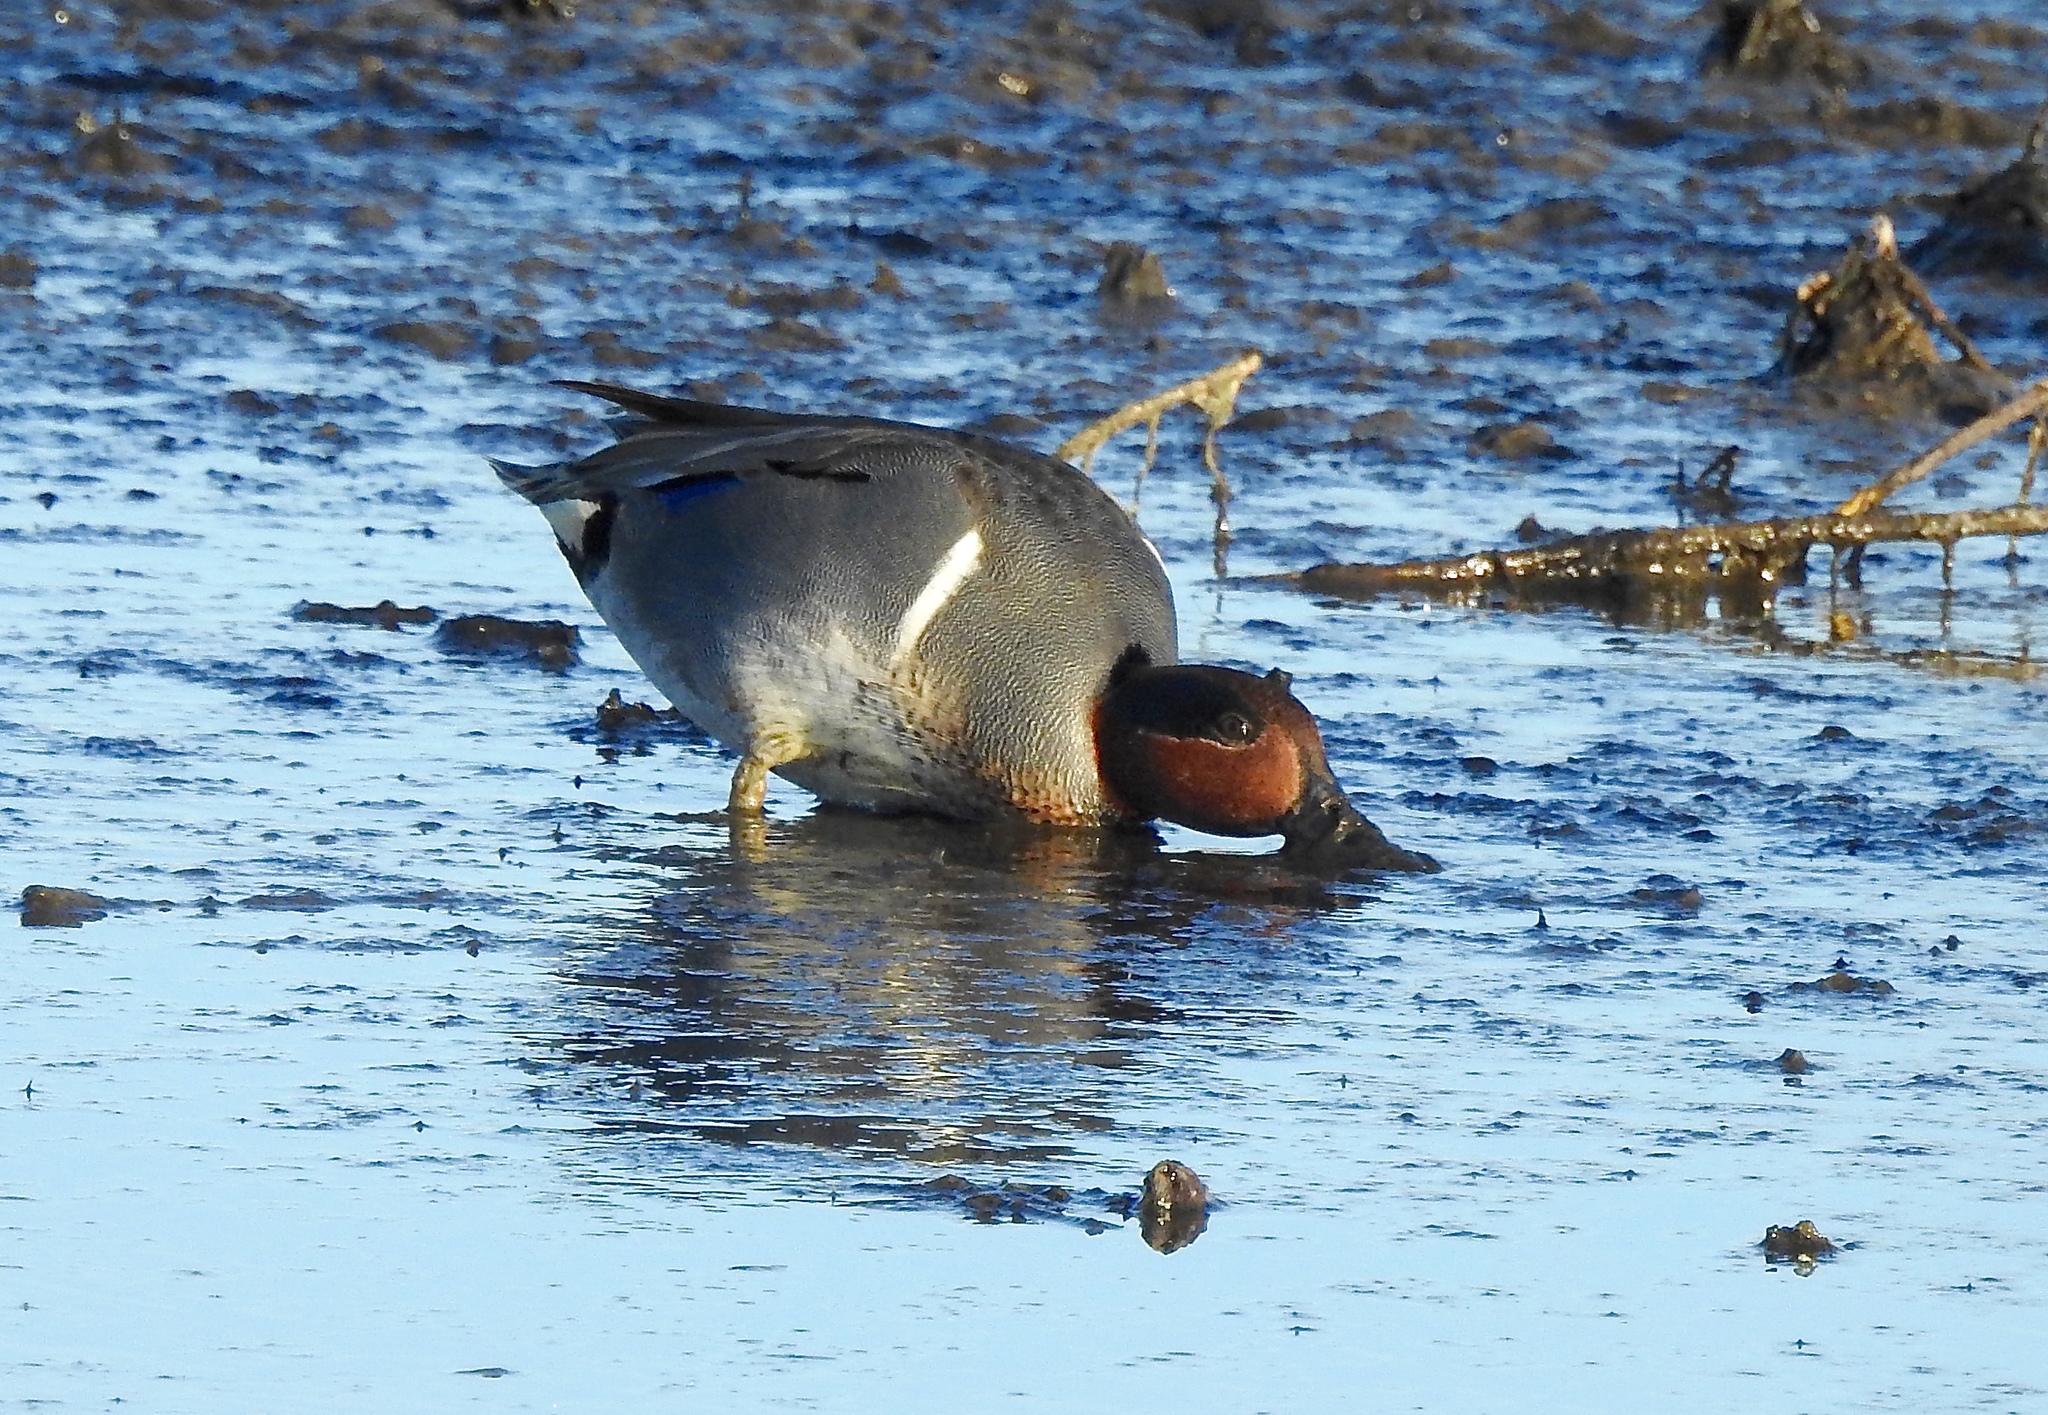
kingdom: Animalia
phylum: Chordata
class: Aves
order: Anseriformes
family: Anatidae
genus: Anas
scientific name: Anas crecca
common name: Eurasian teal
